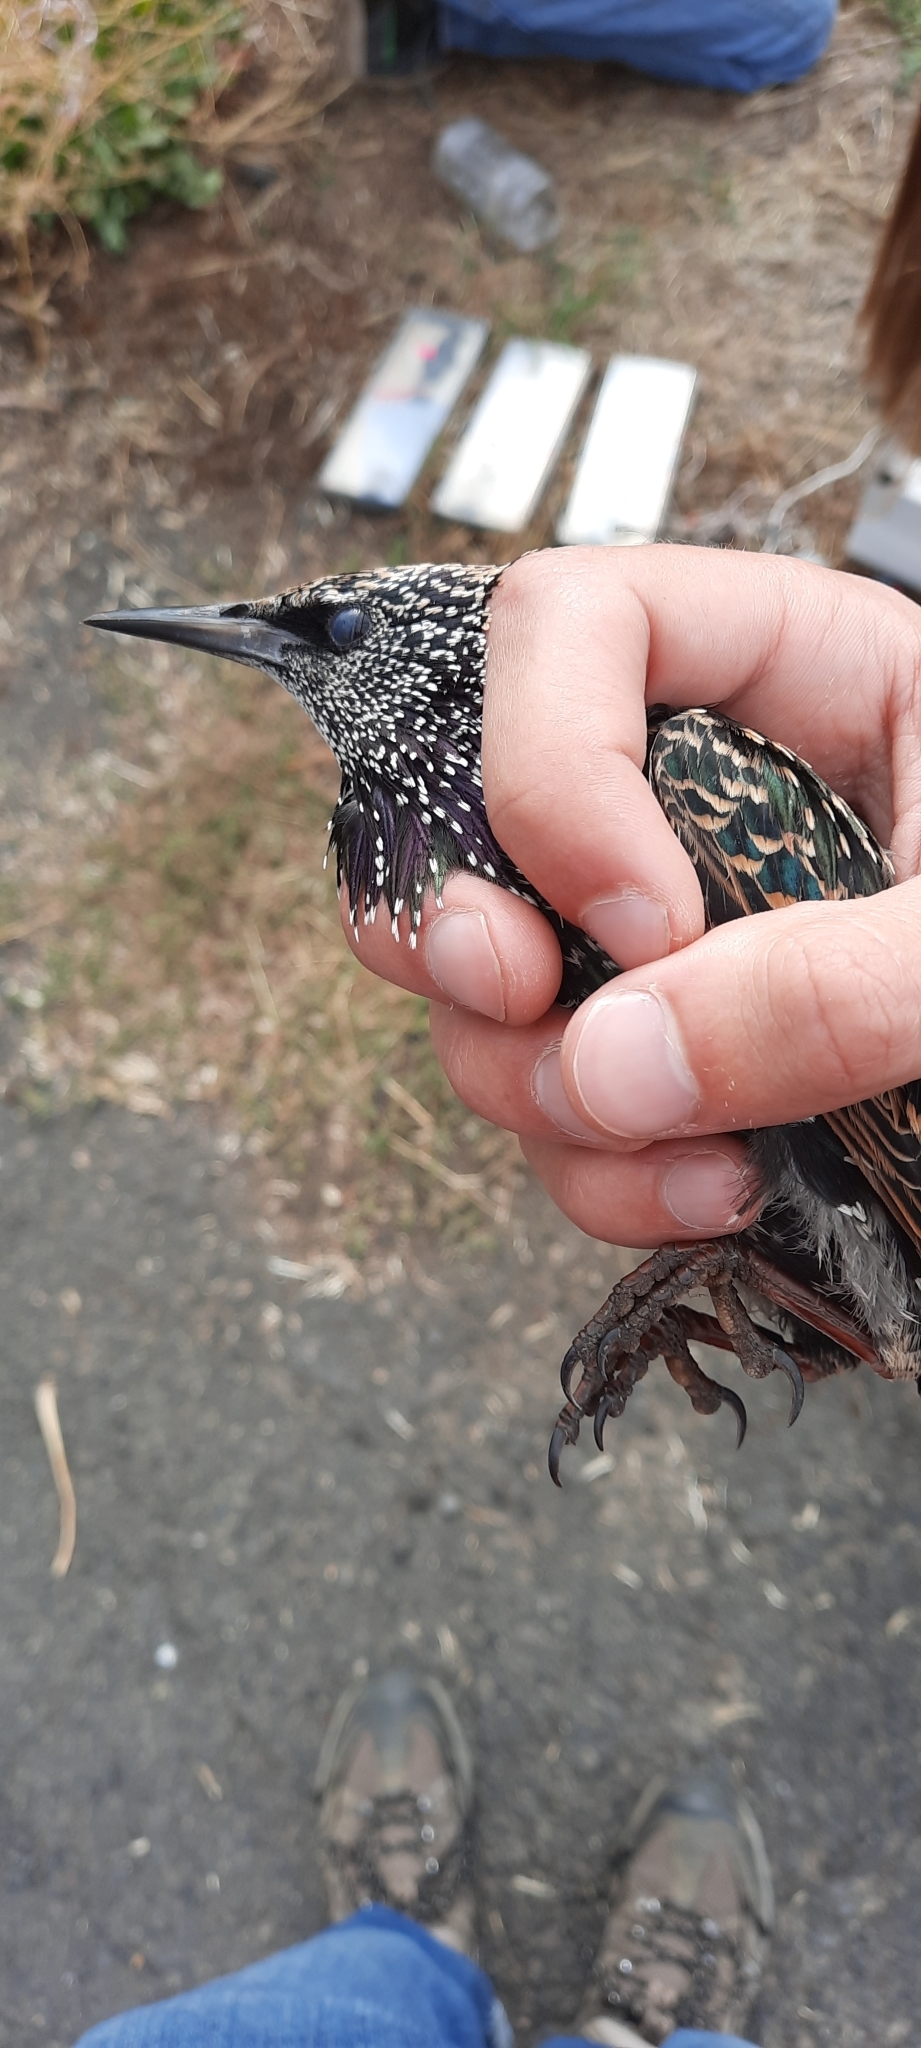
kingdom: Animalia
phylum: Chordata
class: Aves
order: Passeriformes
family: Sturnidae
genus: Sturnus
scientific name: Sturnus vulgaris
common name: Common starling
